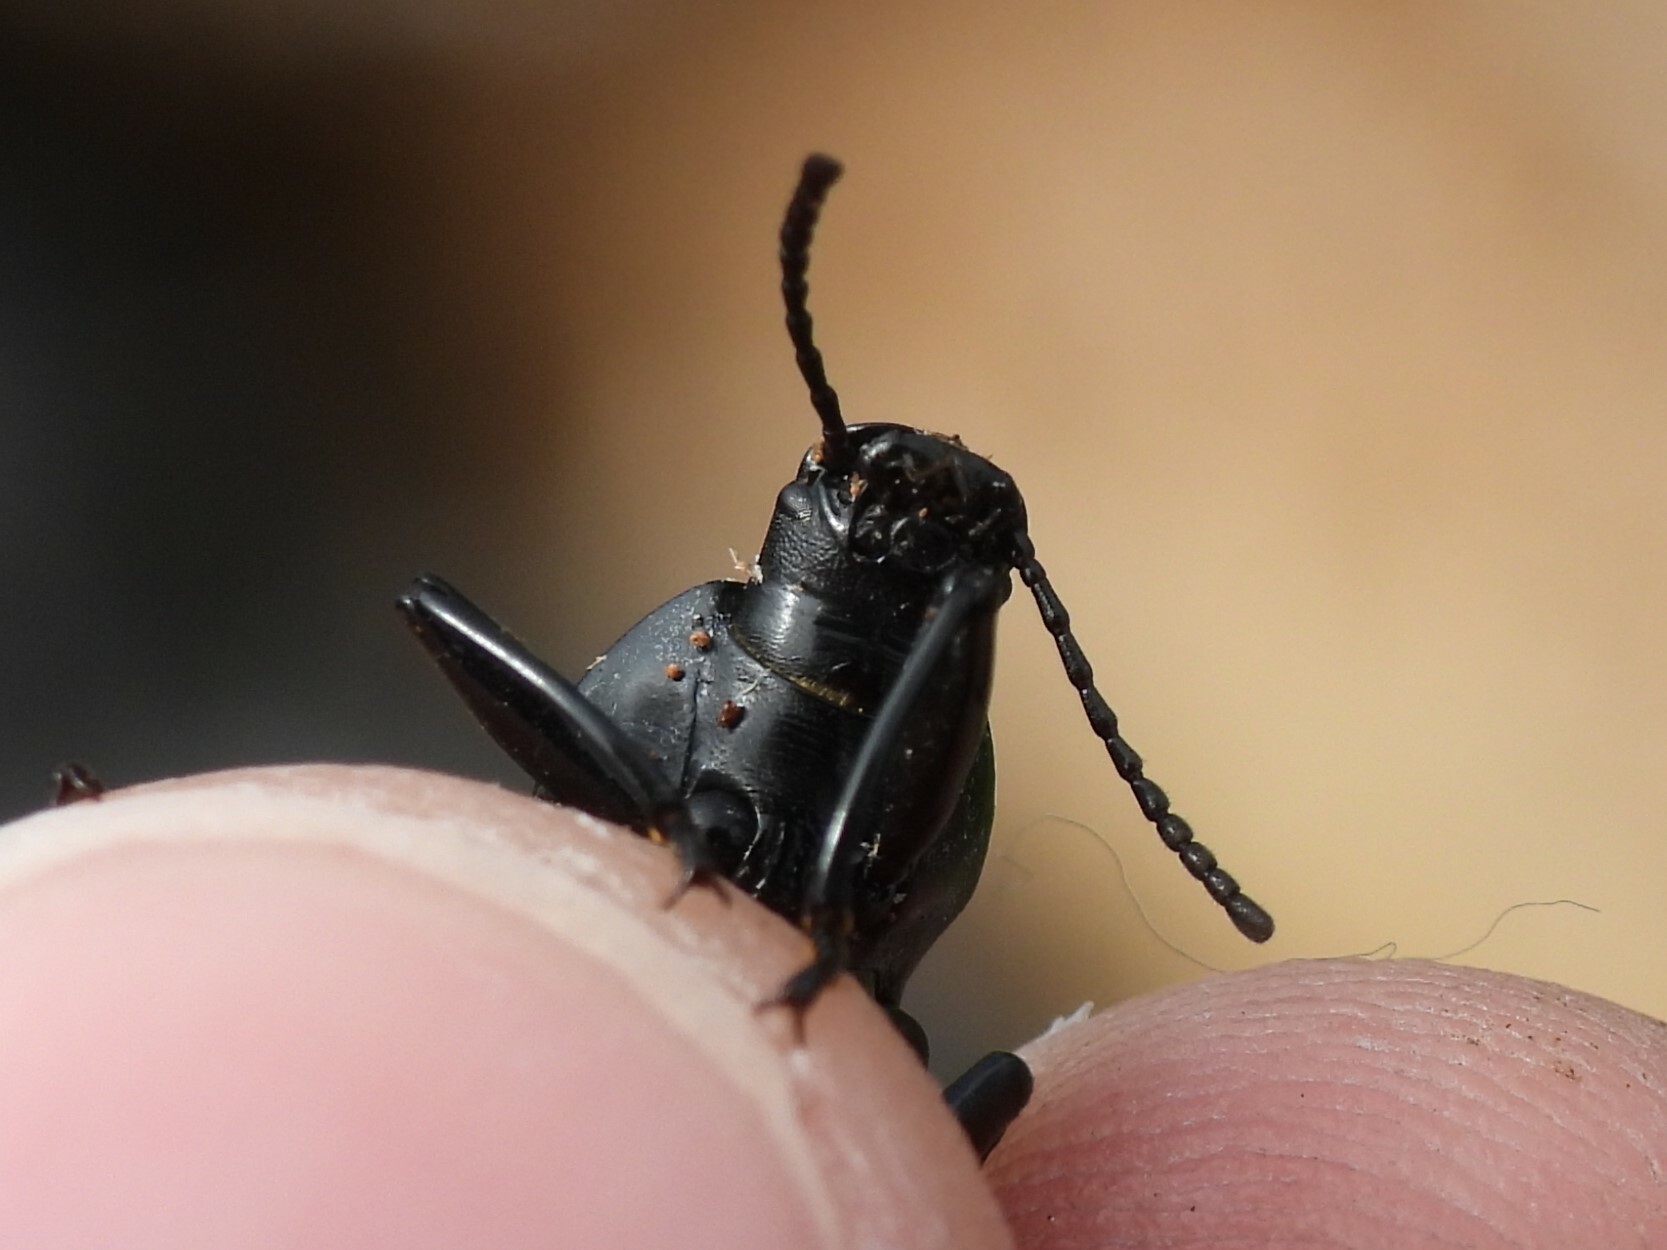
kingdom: Animalia
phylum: Arthropoda
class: Insecta
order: Coleoptera
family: Tenebrionidae
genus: Polopinus
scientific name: Polopinus nitidus
